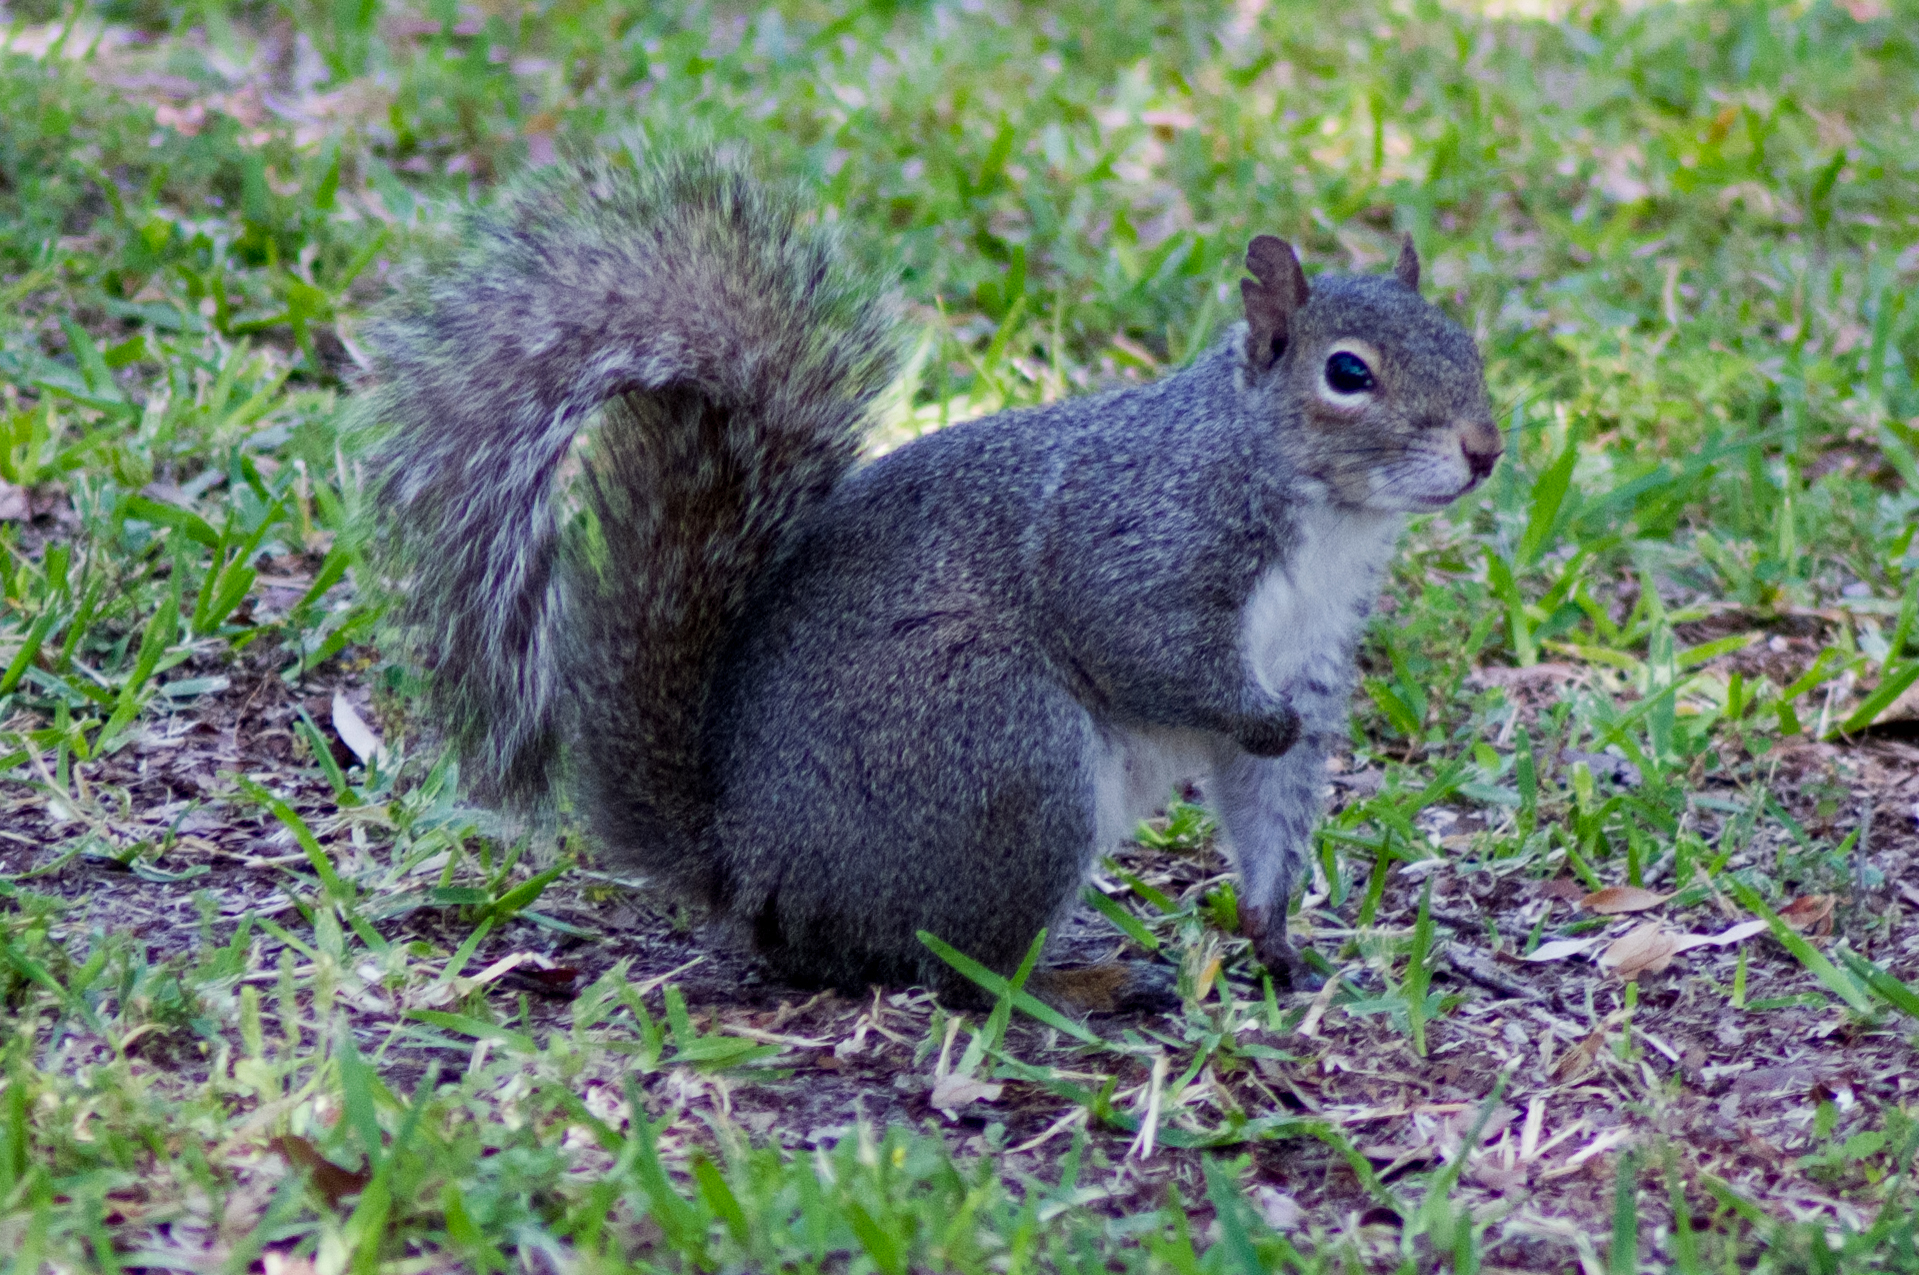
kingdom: Animalia
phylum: Chordata
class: Mammalia
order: Rodentia
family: Sciuridae
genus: Sciurus
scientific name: Sciurus carolinensis
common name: Eastern gray squirrel
